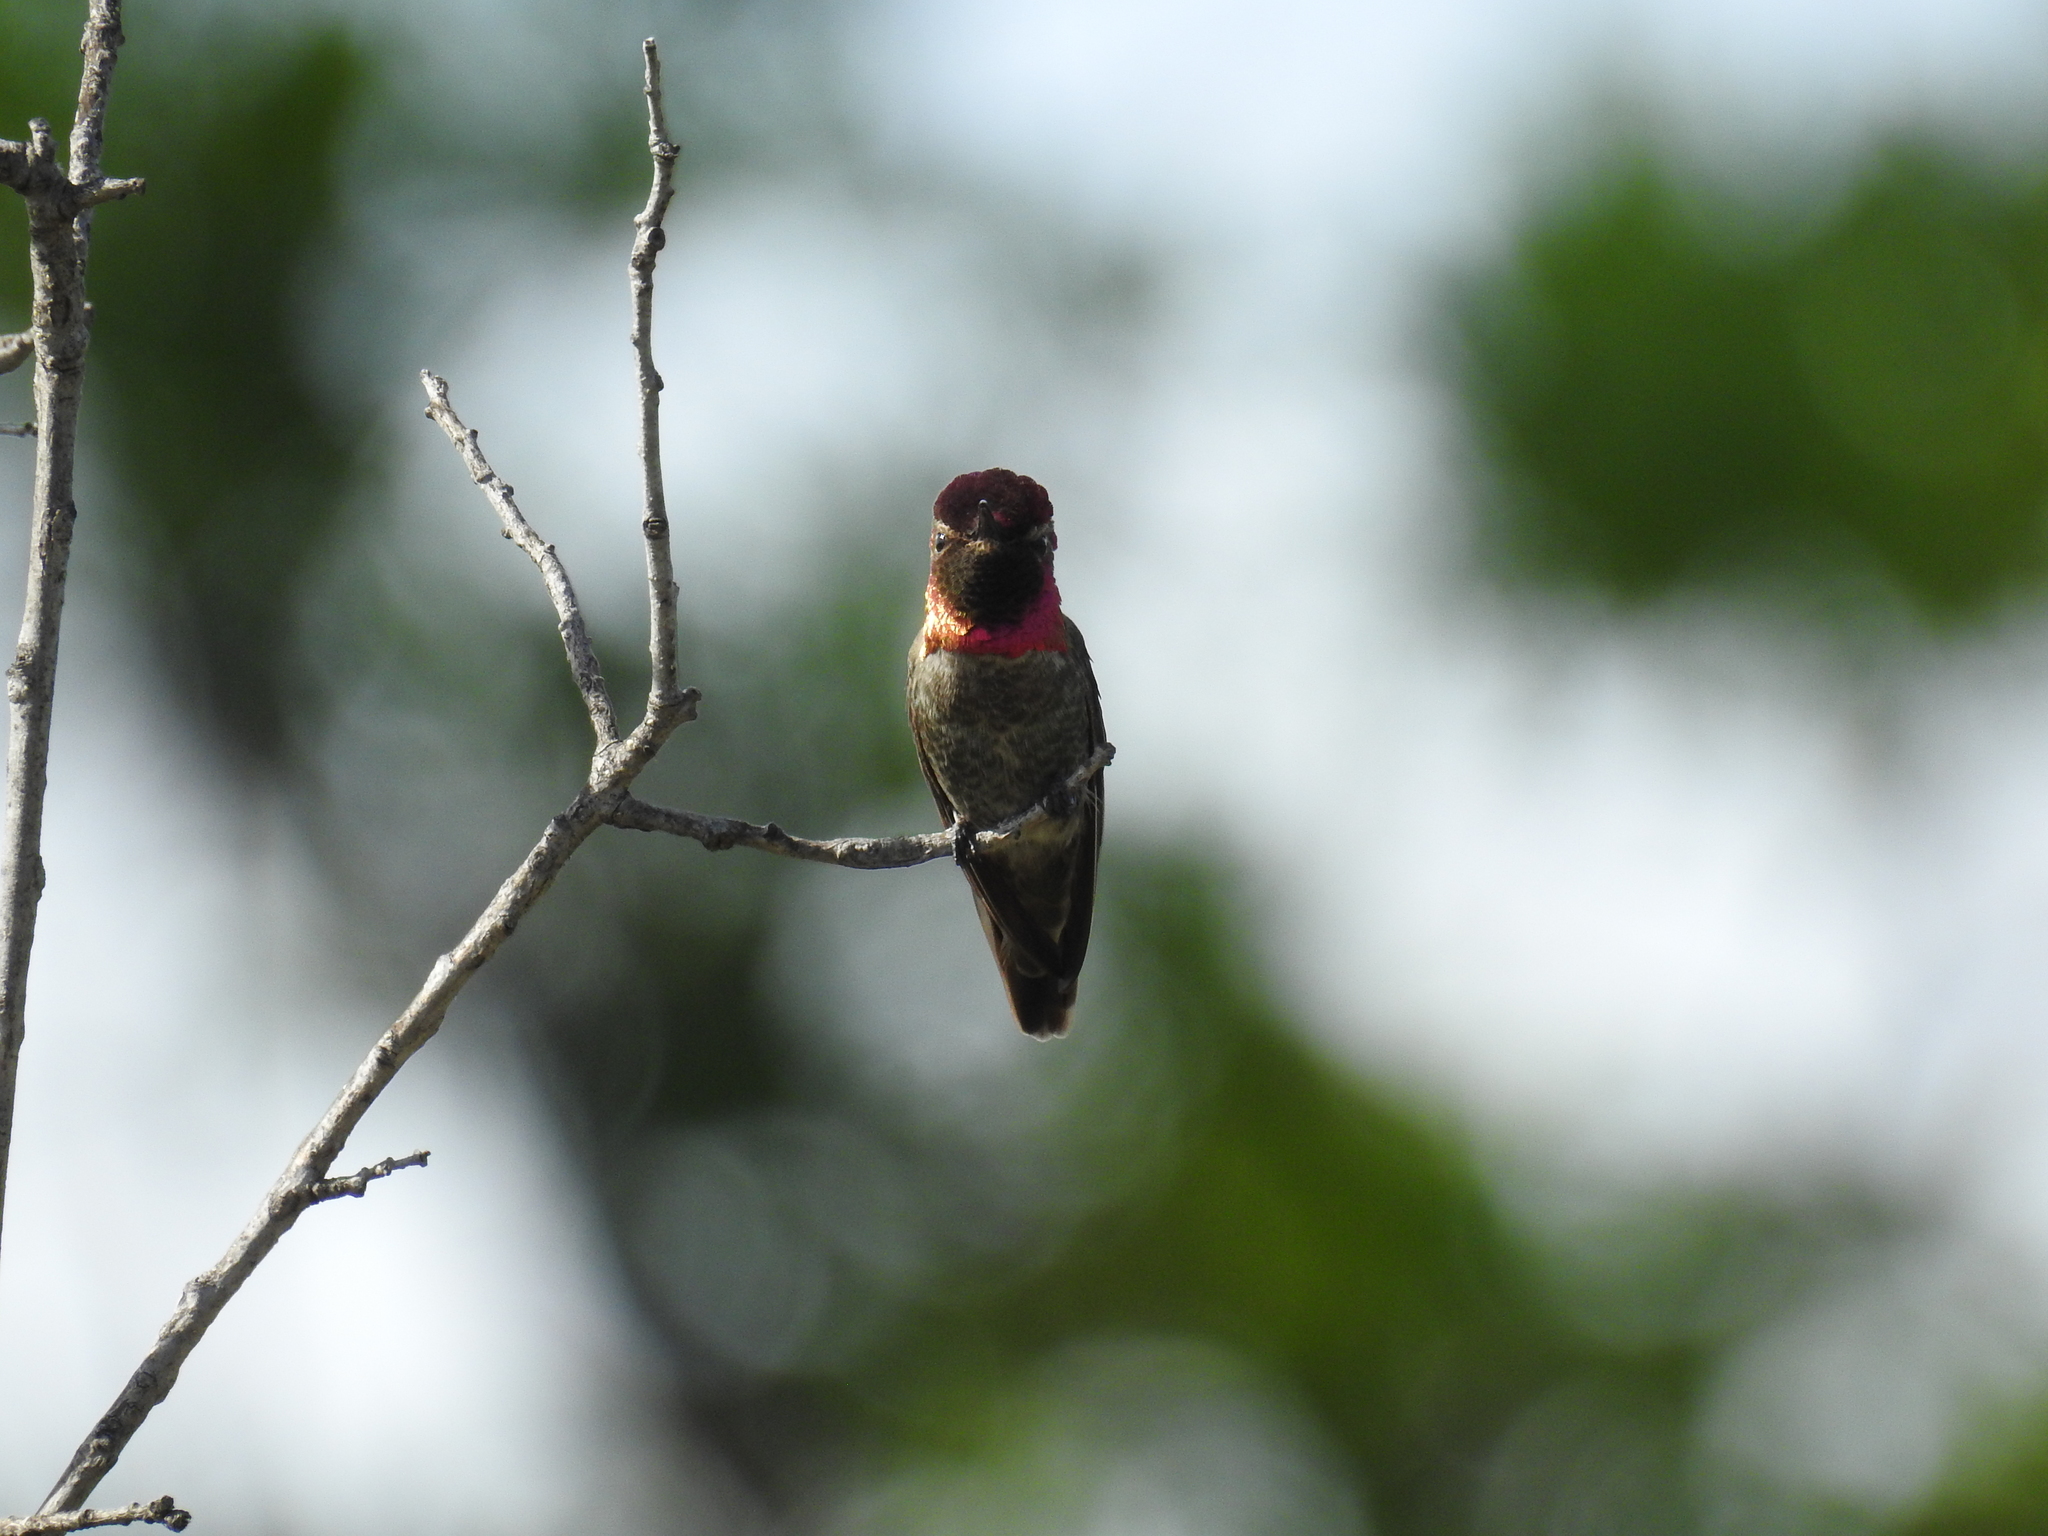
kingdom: Animalia
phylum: Chordata
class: Aves
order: Apodiformes
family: Trochilidae
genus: Calypte
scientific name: Calypte anna
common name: Anna's hummingbird
